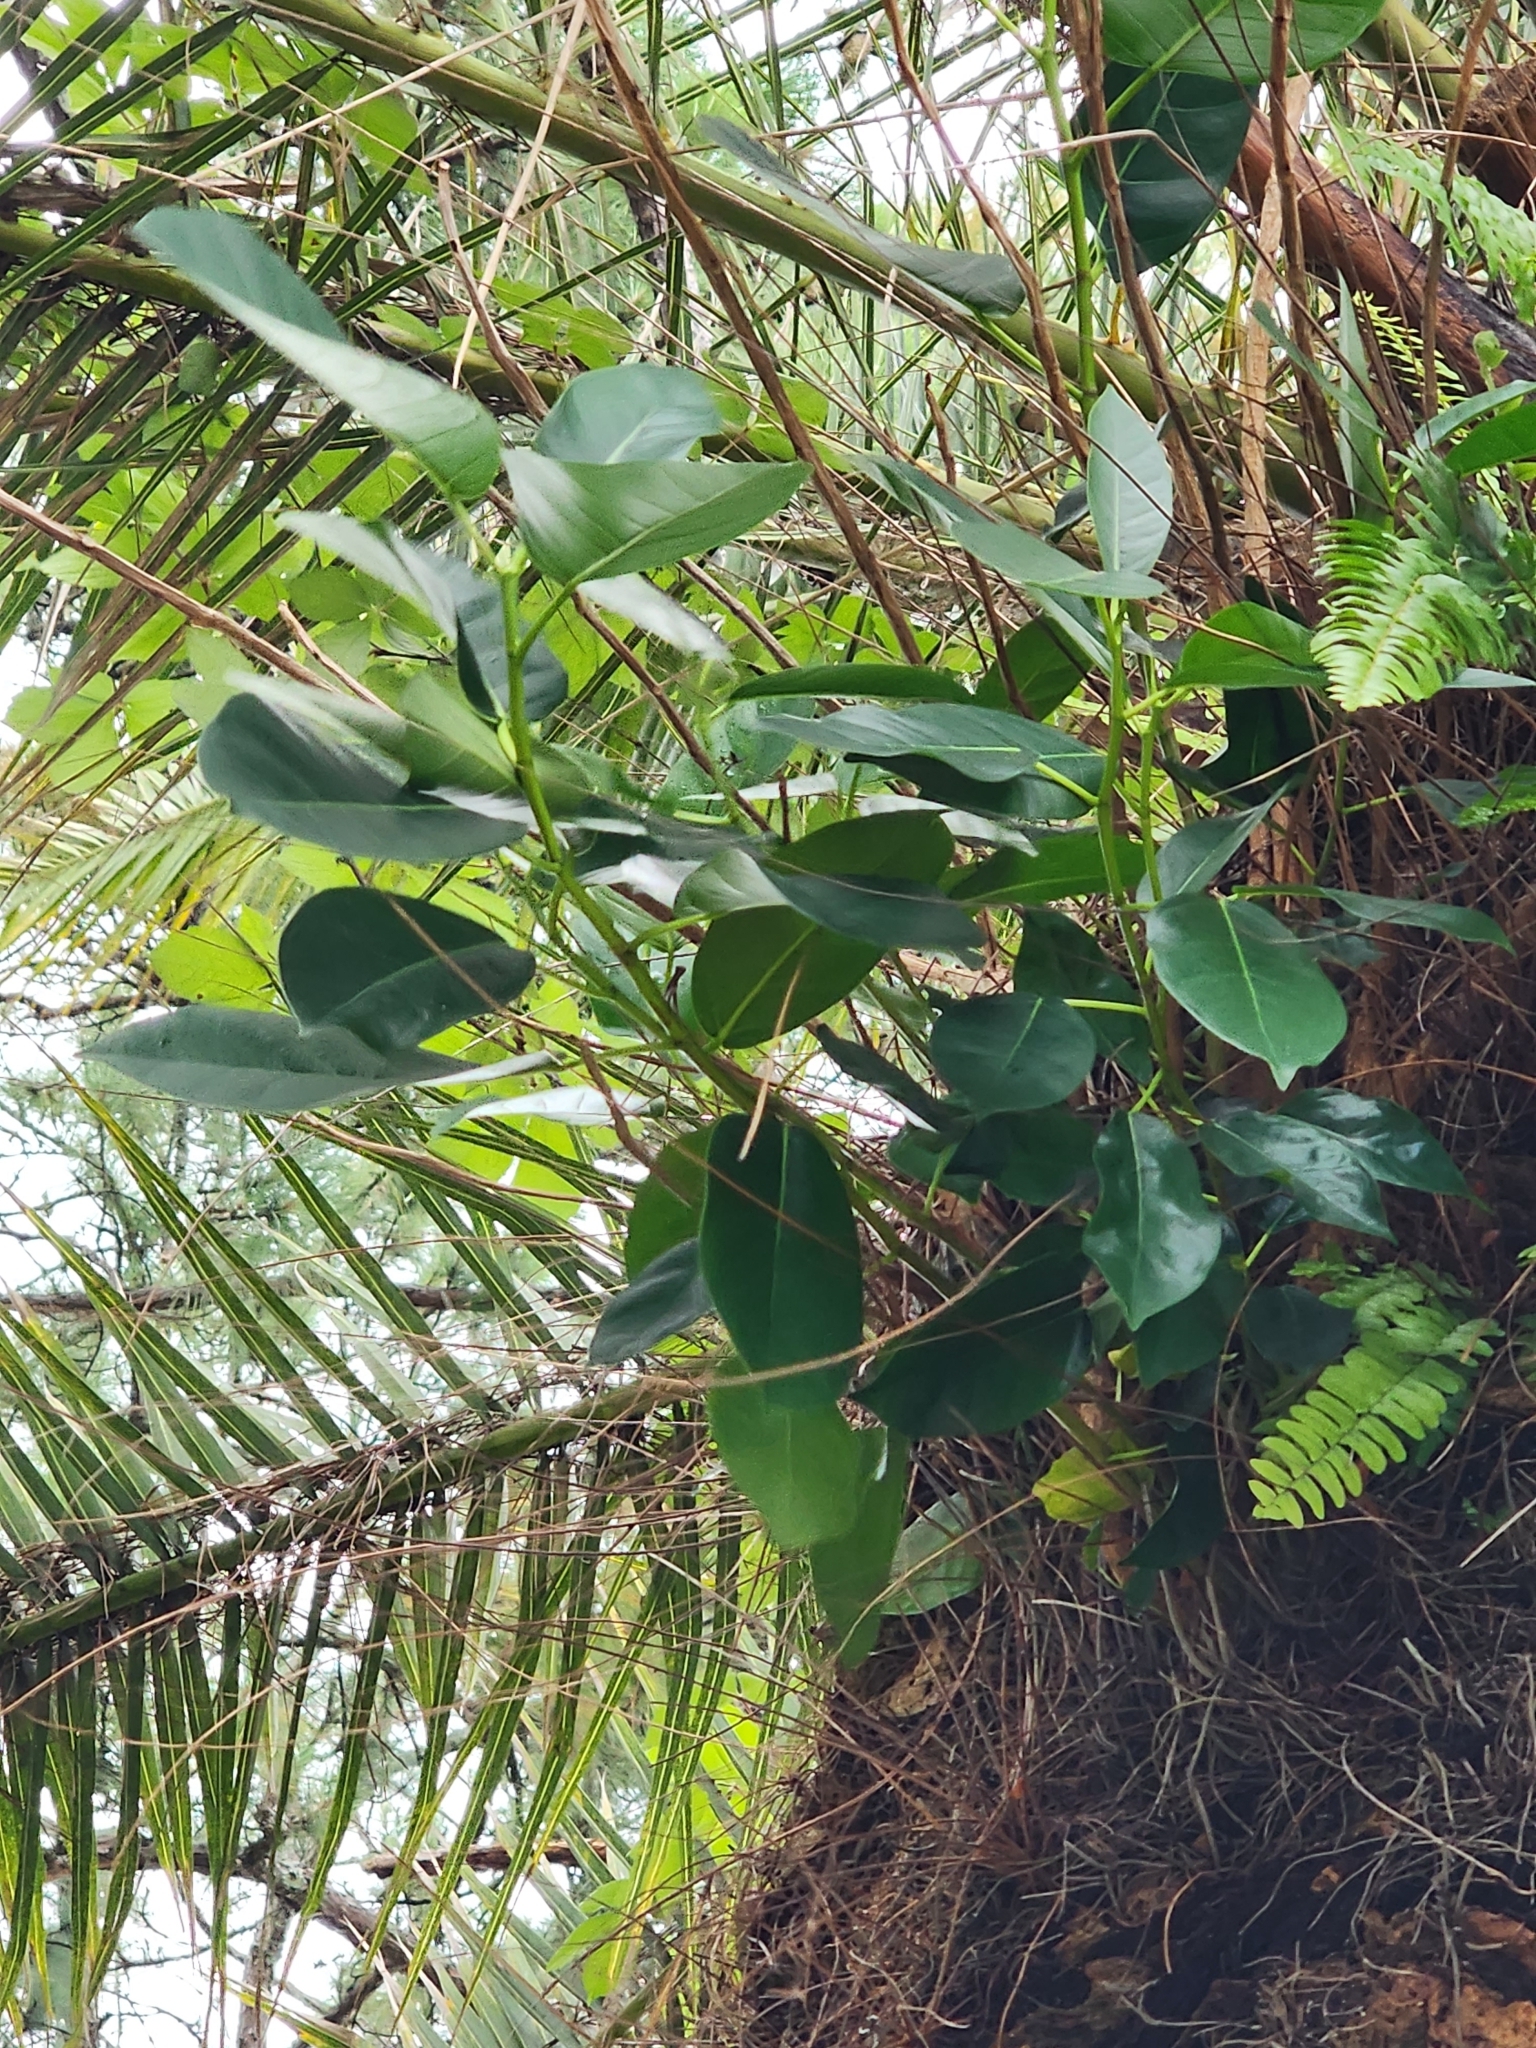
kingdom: Plantae
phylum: Tracheophyta
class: Magnoliopsida
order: Rosales
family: Moraceae
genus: Ficus
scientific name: Ficus aurea
